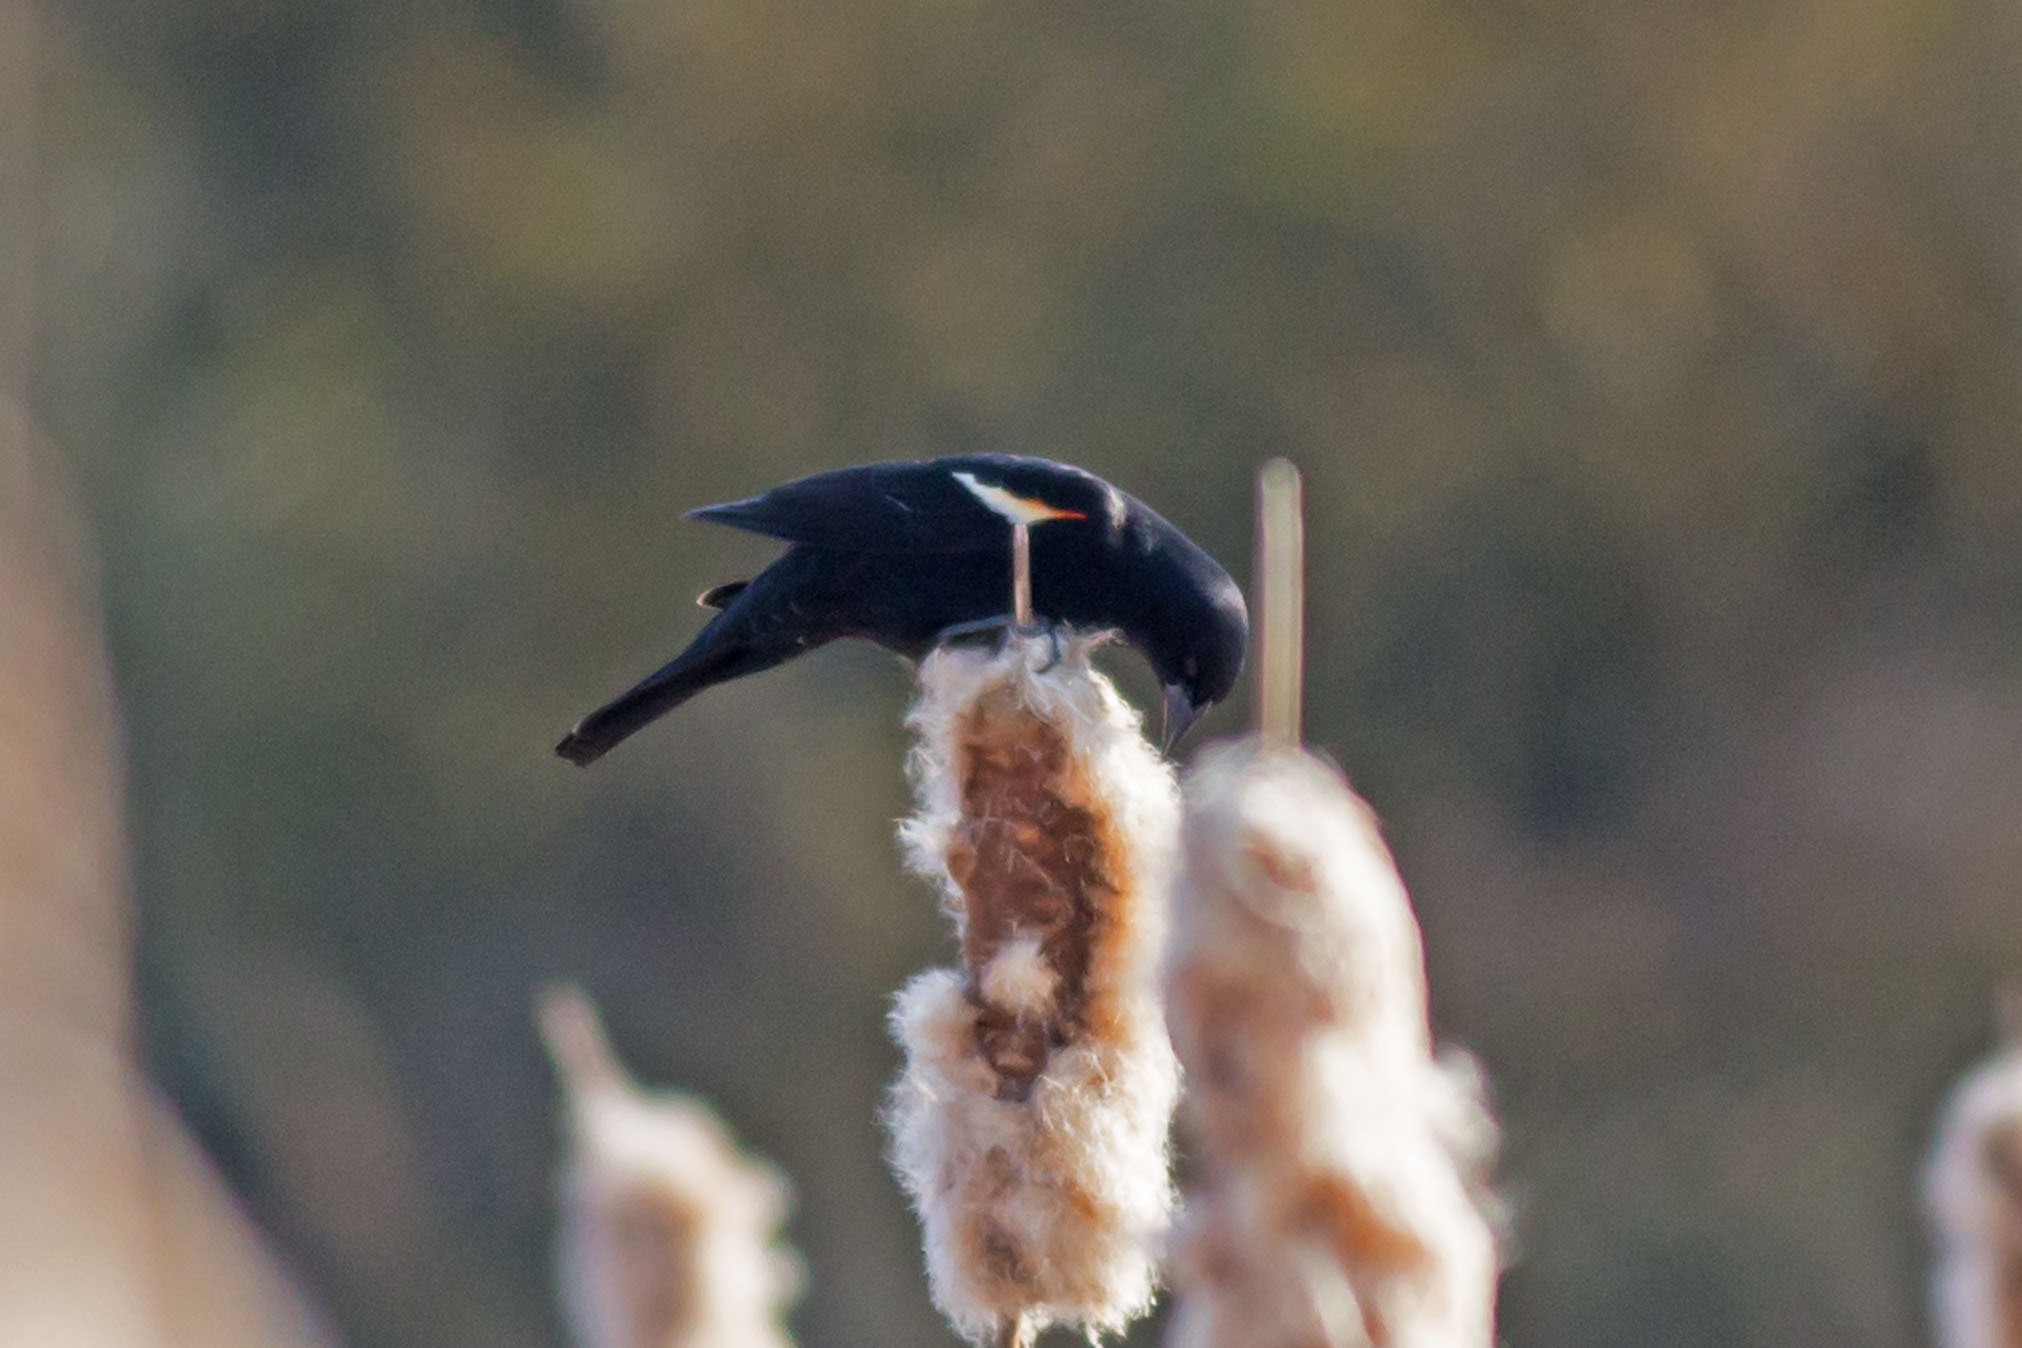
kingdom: Animalia
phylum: Chordata
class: Aves
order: Passeriformes
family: Icteridae
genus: Agelaius
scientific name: Agelaius phoeniceus
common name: Red-winged blackbird
